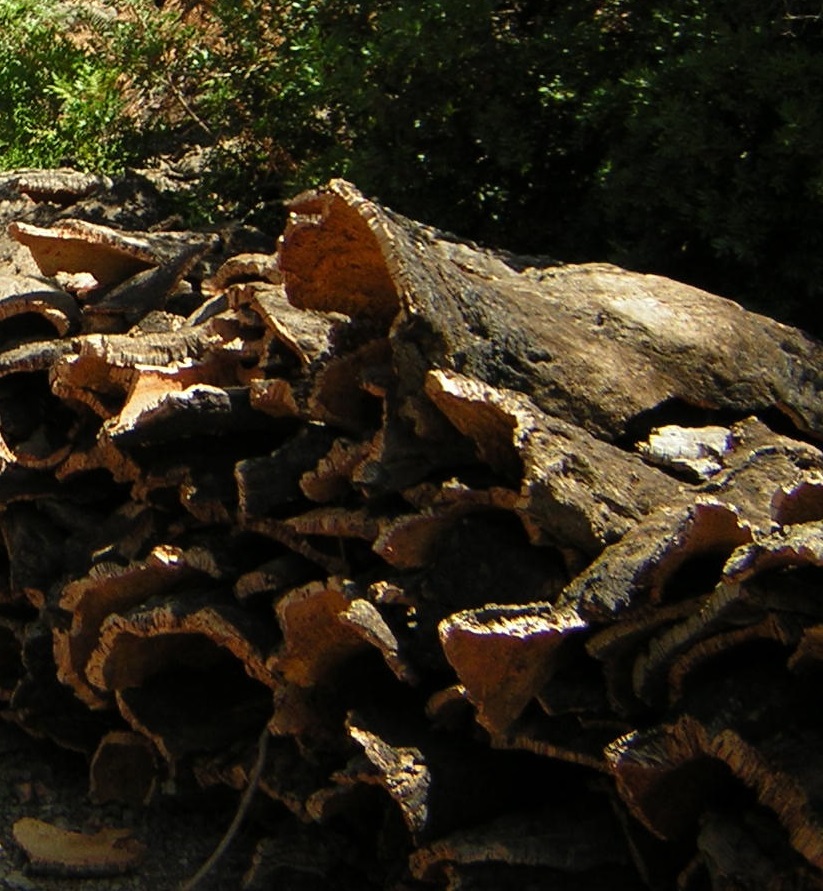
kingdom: Plantae
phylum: Tracheophyta
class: Magnoliopsida
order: Fagales
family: Fagaceae
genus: Quercus
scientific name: Quercus suber
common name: Cork oak
